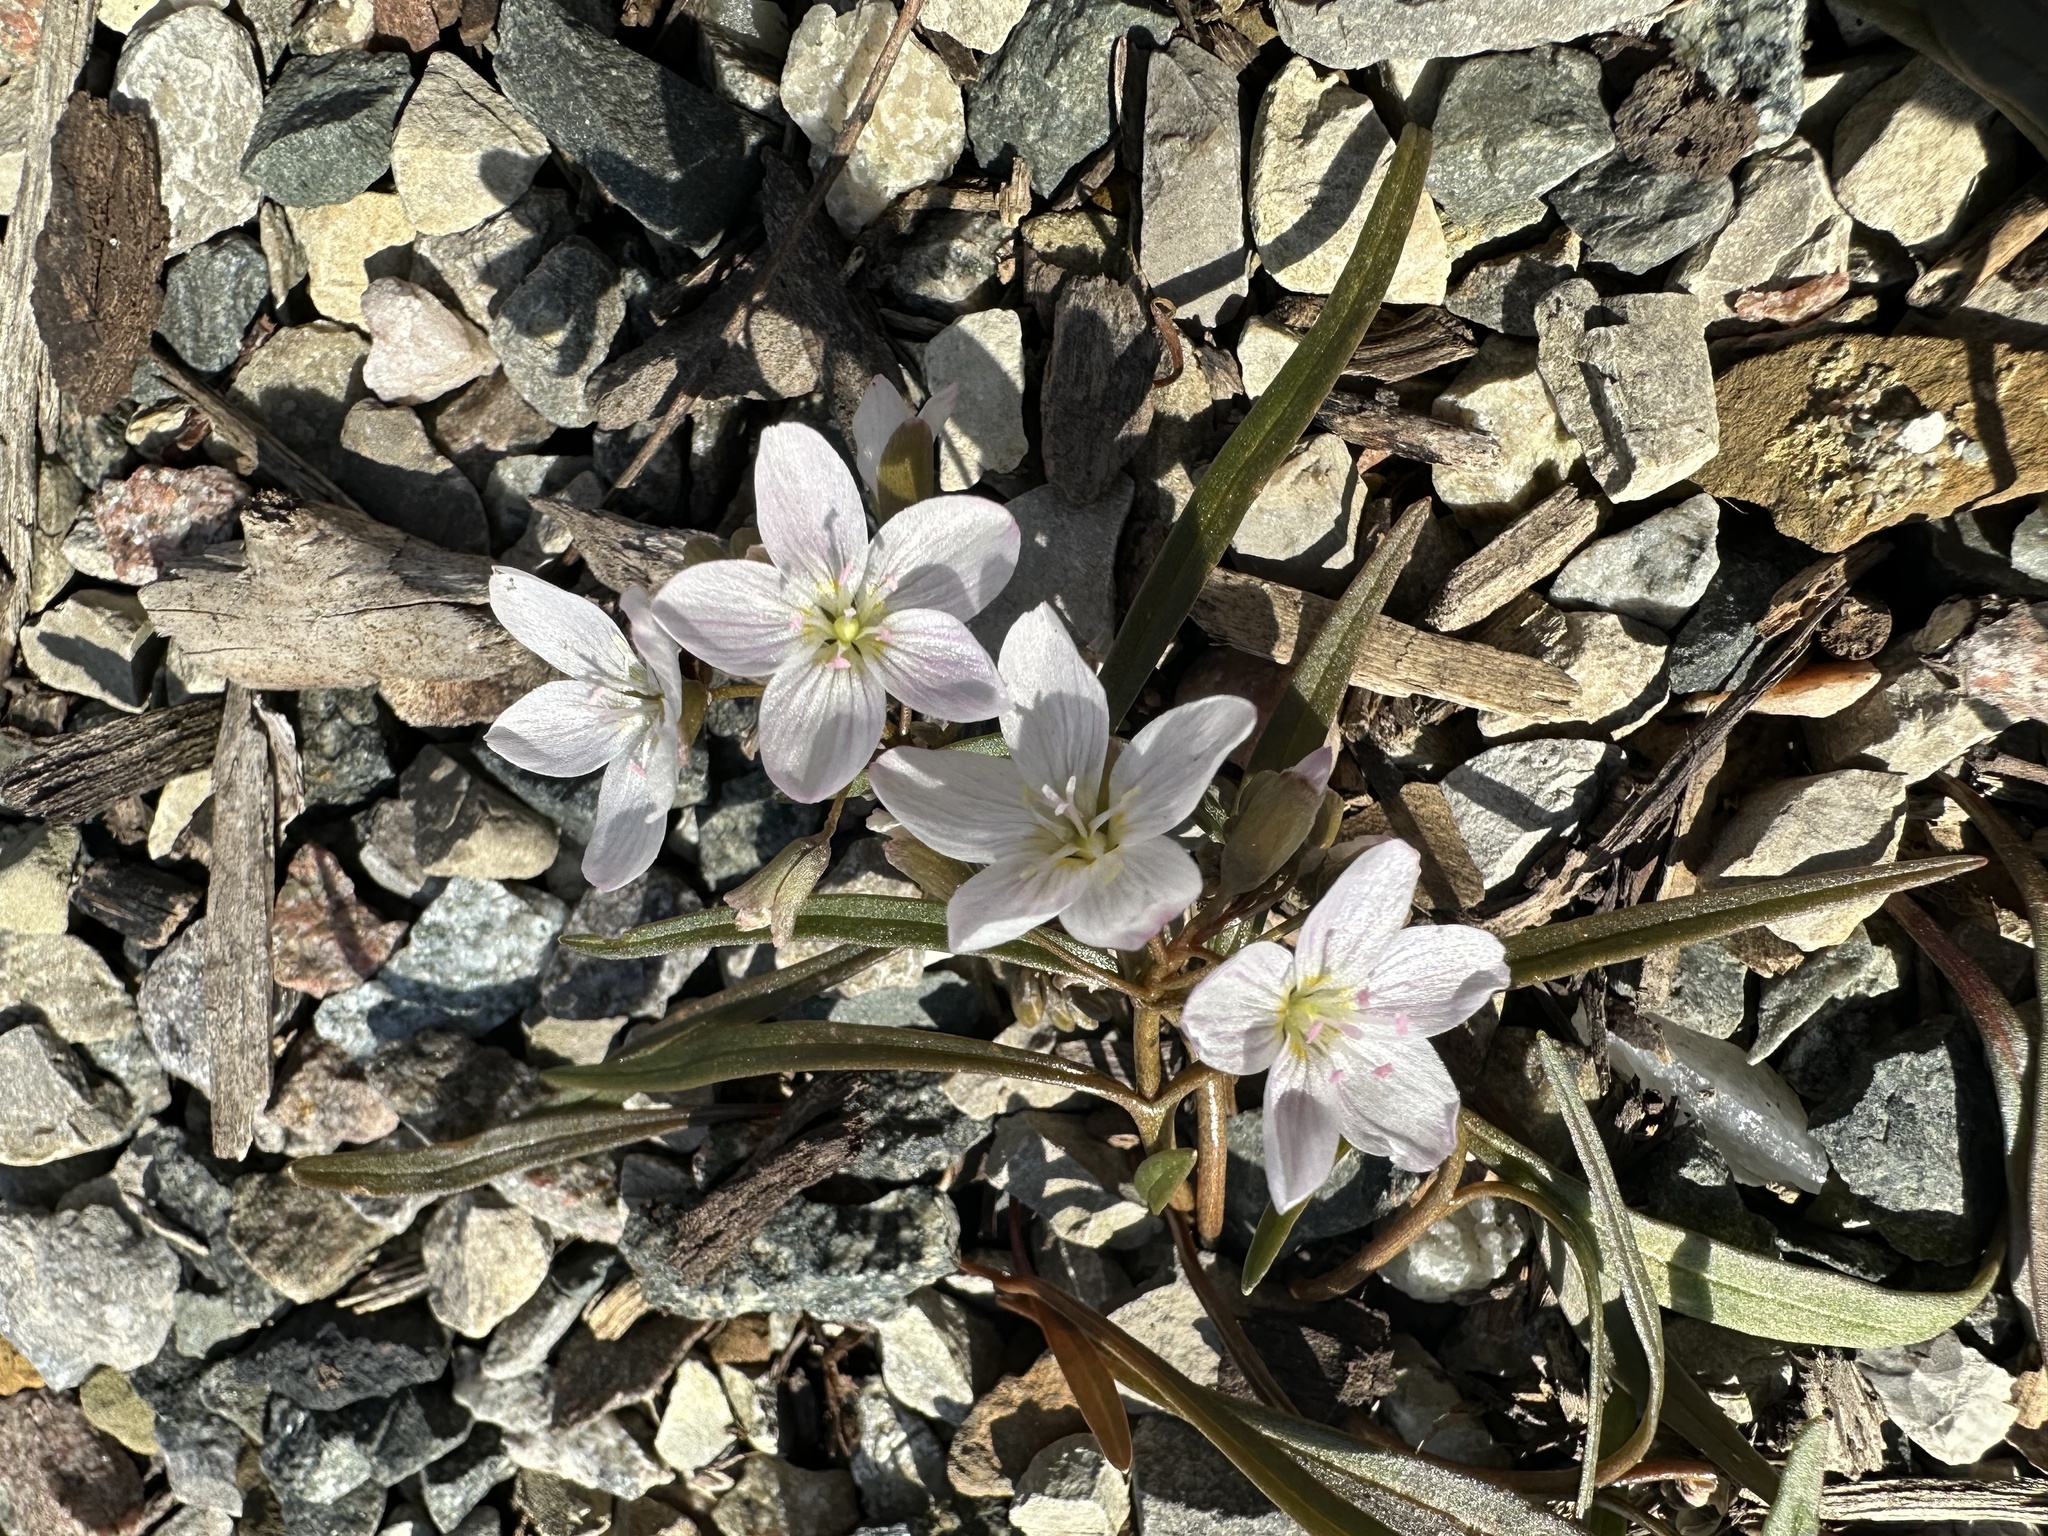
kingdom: Plantae
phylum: Tracheophyta
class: Magnoliopsida
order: Caryophyllales
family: Montiaceae
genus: Claytonia
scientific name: Claytonia virginica
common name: Virginia springbeauty
